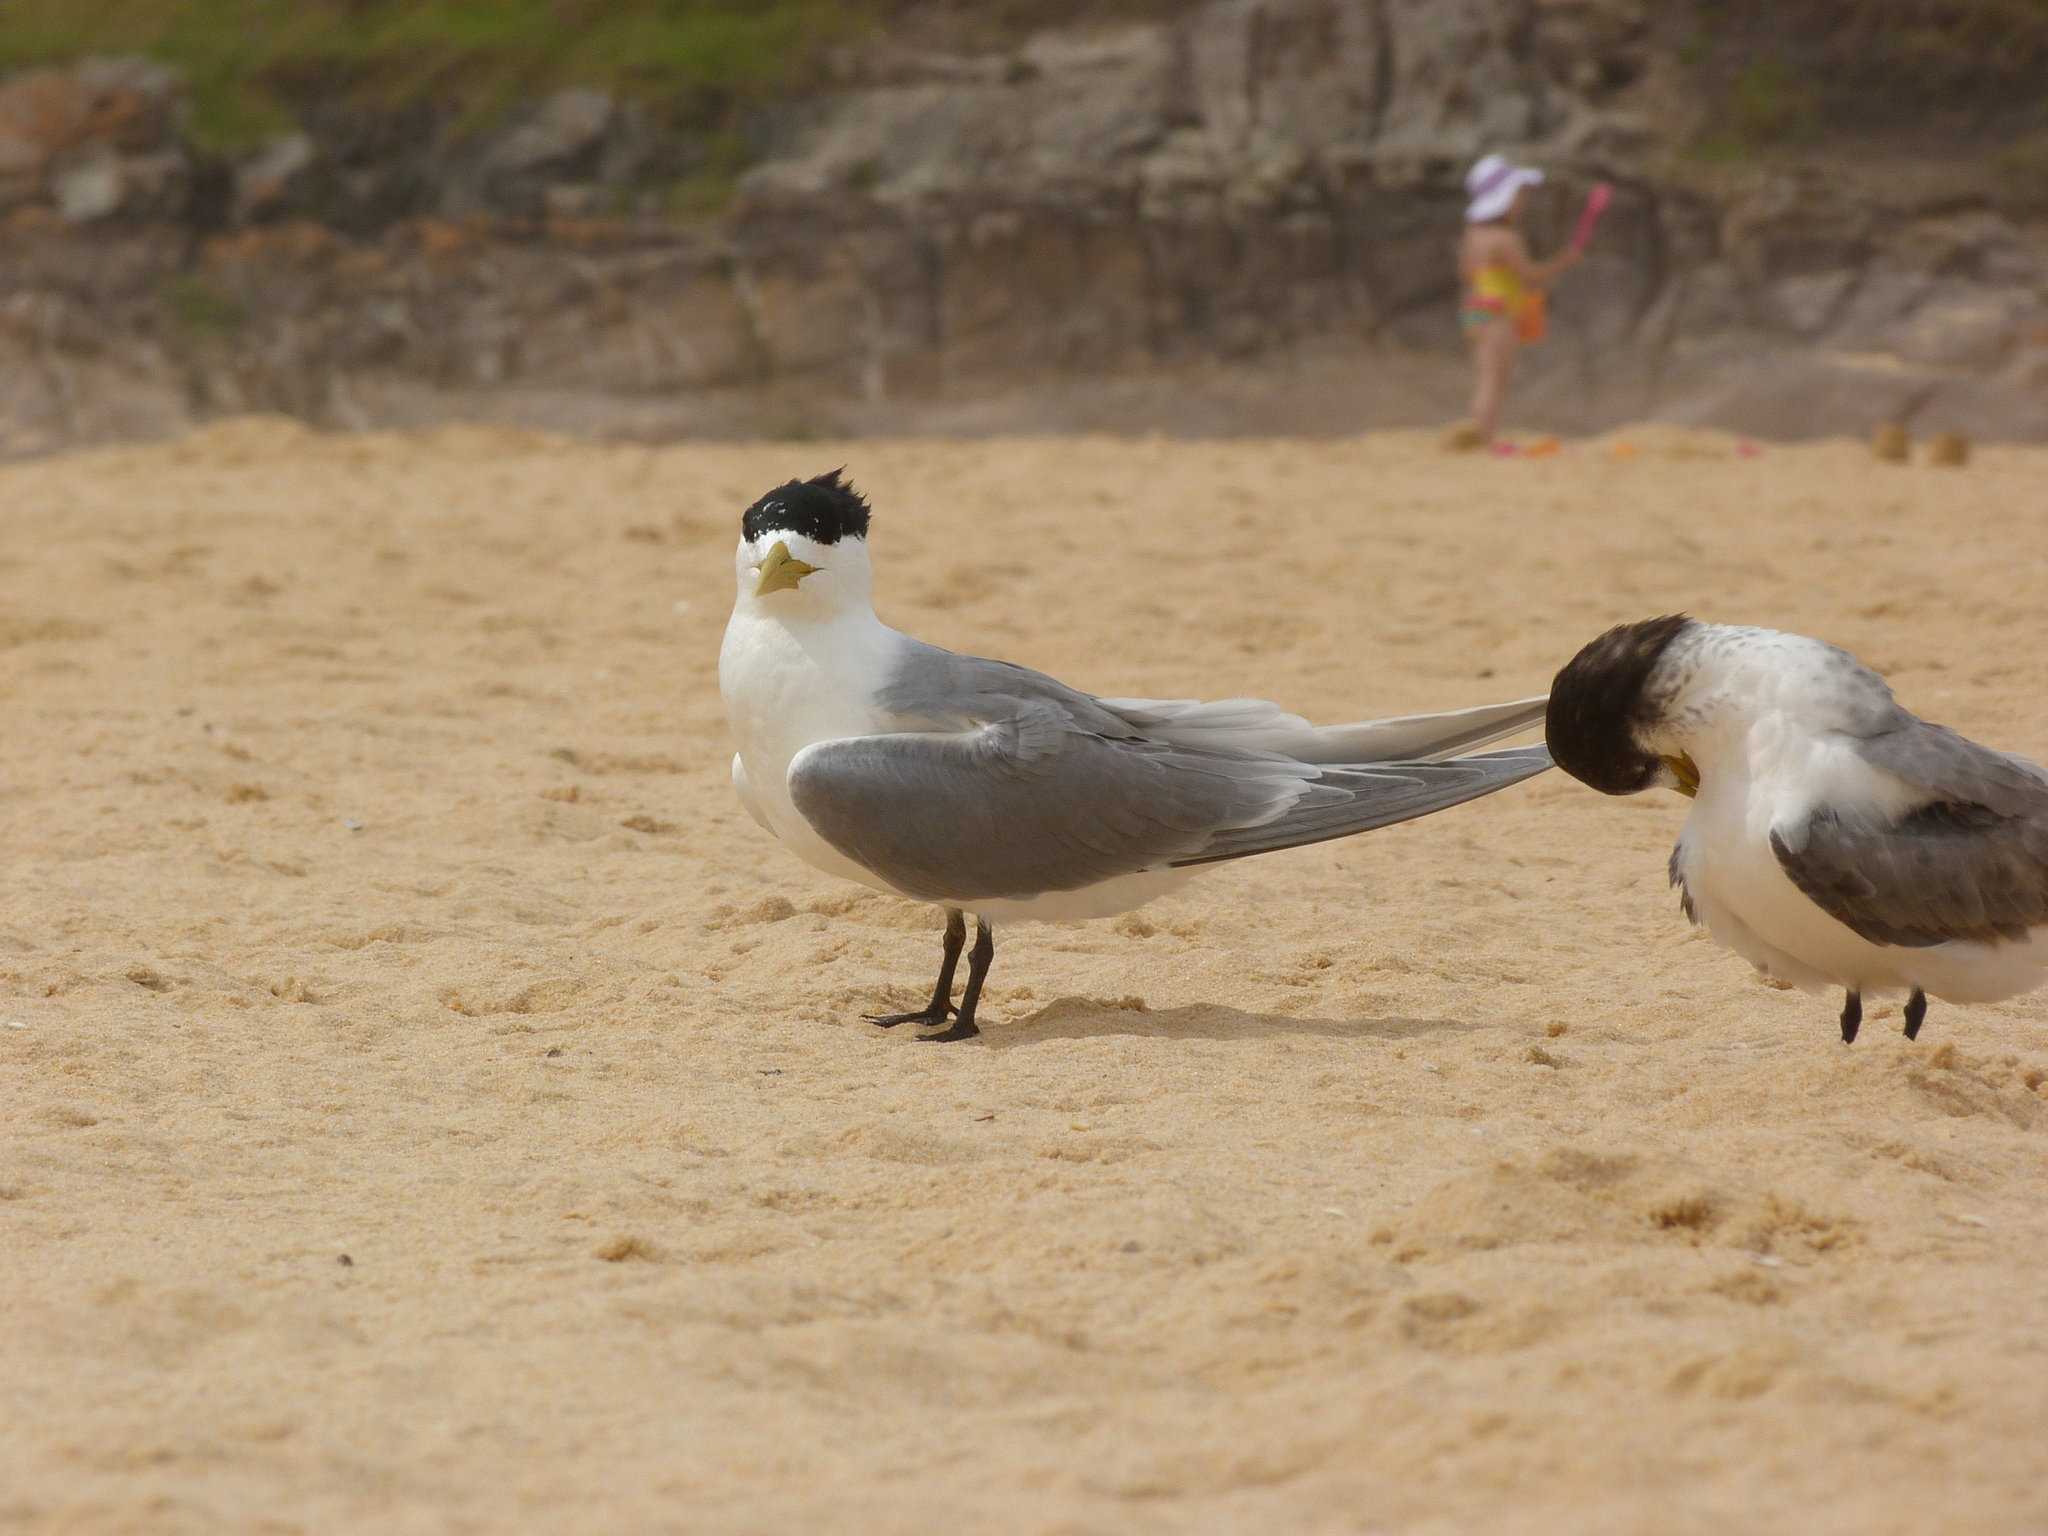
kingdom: Animalia
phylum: Chordata
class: Aves
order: Charadriiformes
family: Laridae
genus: Thalasseus
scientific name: Thalasseus bergii
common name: Greater crested tern
